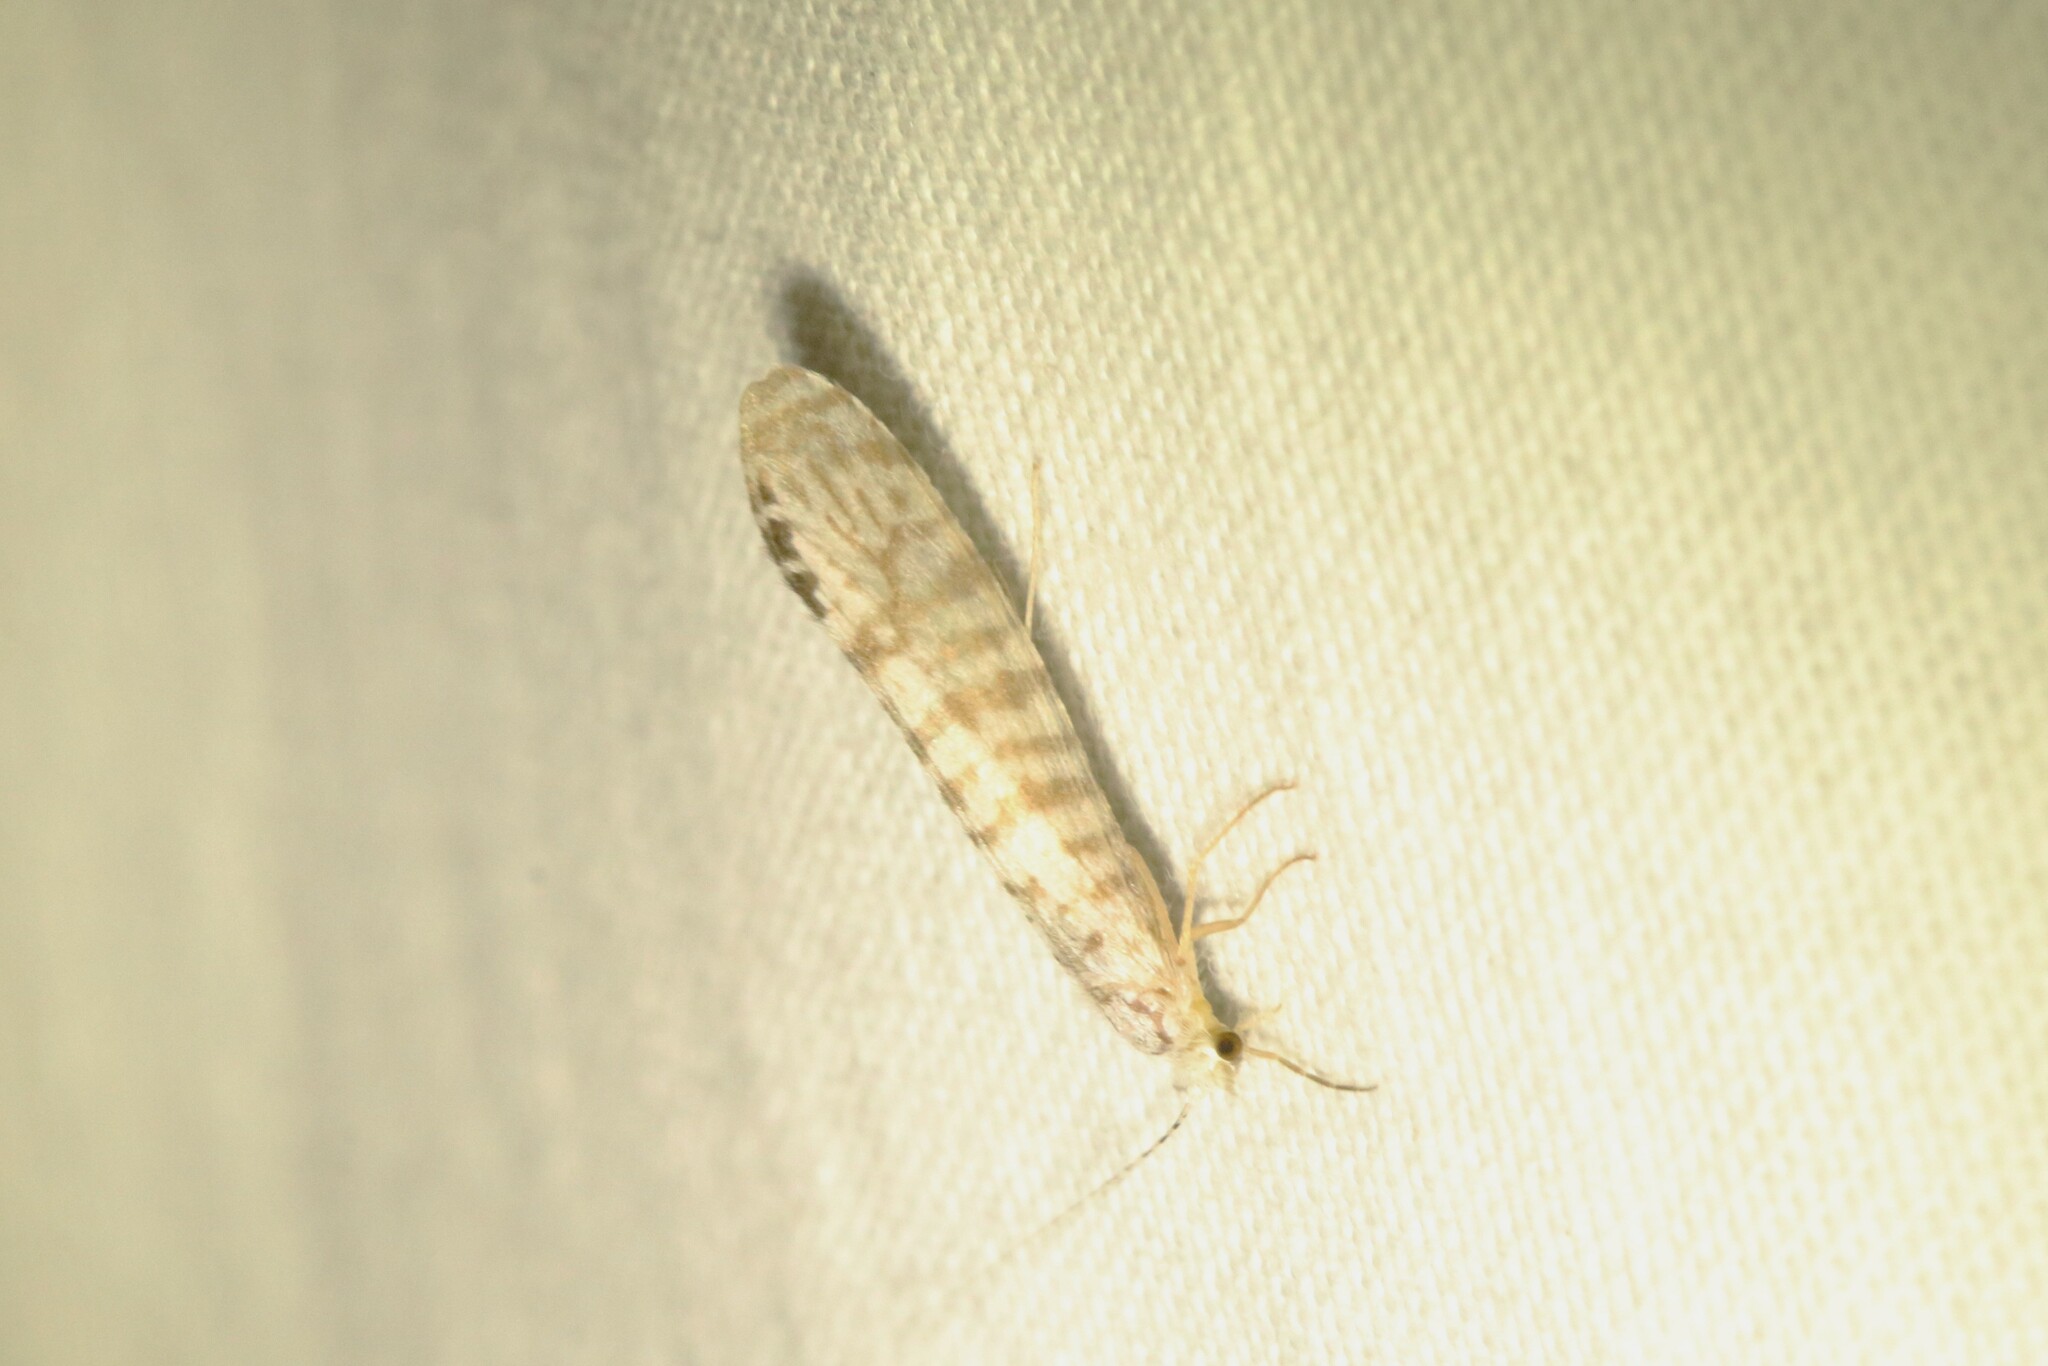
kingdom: Animalia
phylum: Arthropoda
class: Insecta
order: Trichoptera
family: Leptoceridae
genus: Nectopsyche
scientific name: Nectopsyche exquisita
